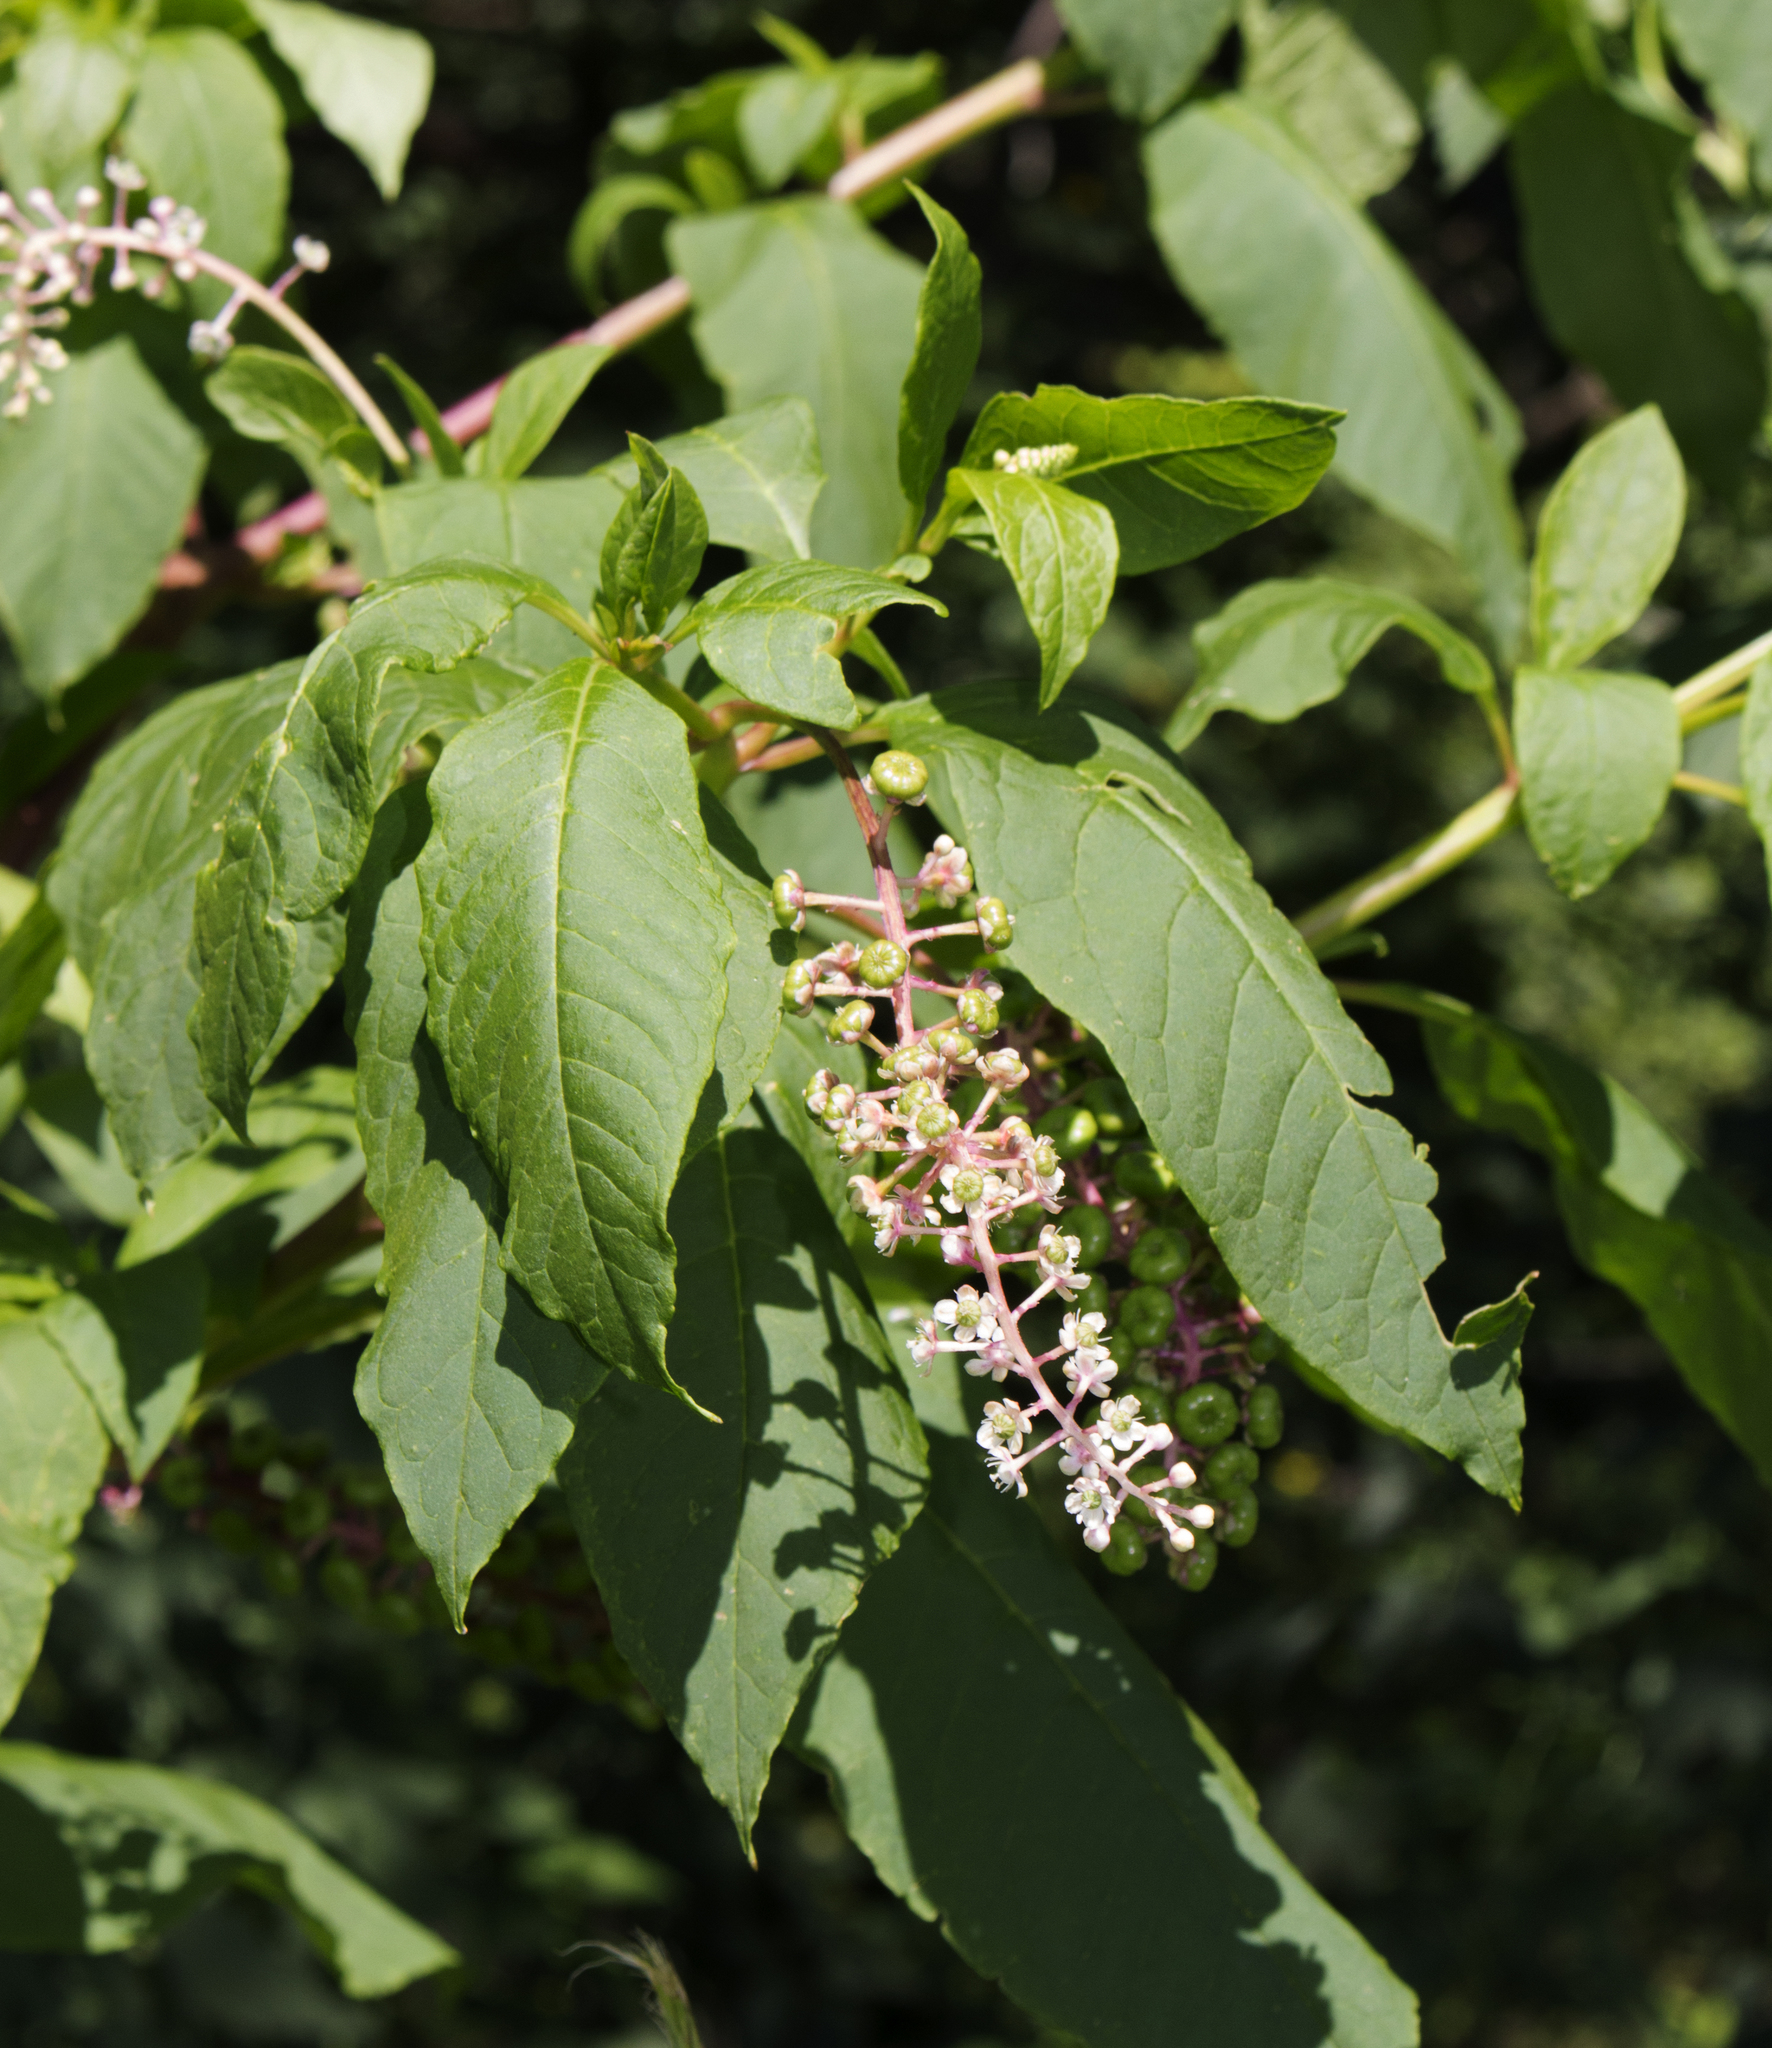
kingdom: Plantae
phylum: Tracheophyta
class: Magnoliopsida
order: Caryophyllales
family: Phytolaccaceae
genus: Phytolacca
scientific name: Phytolacca americana
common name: American pokeweed
